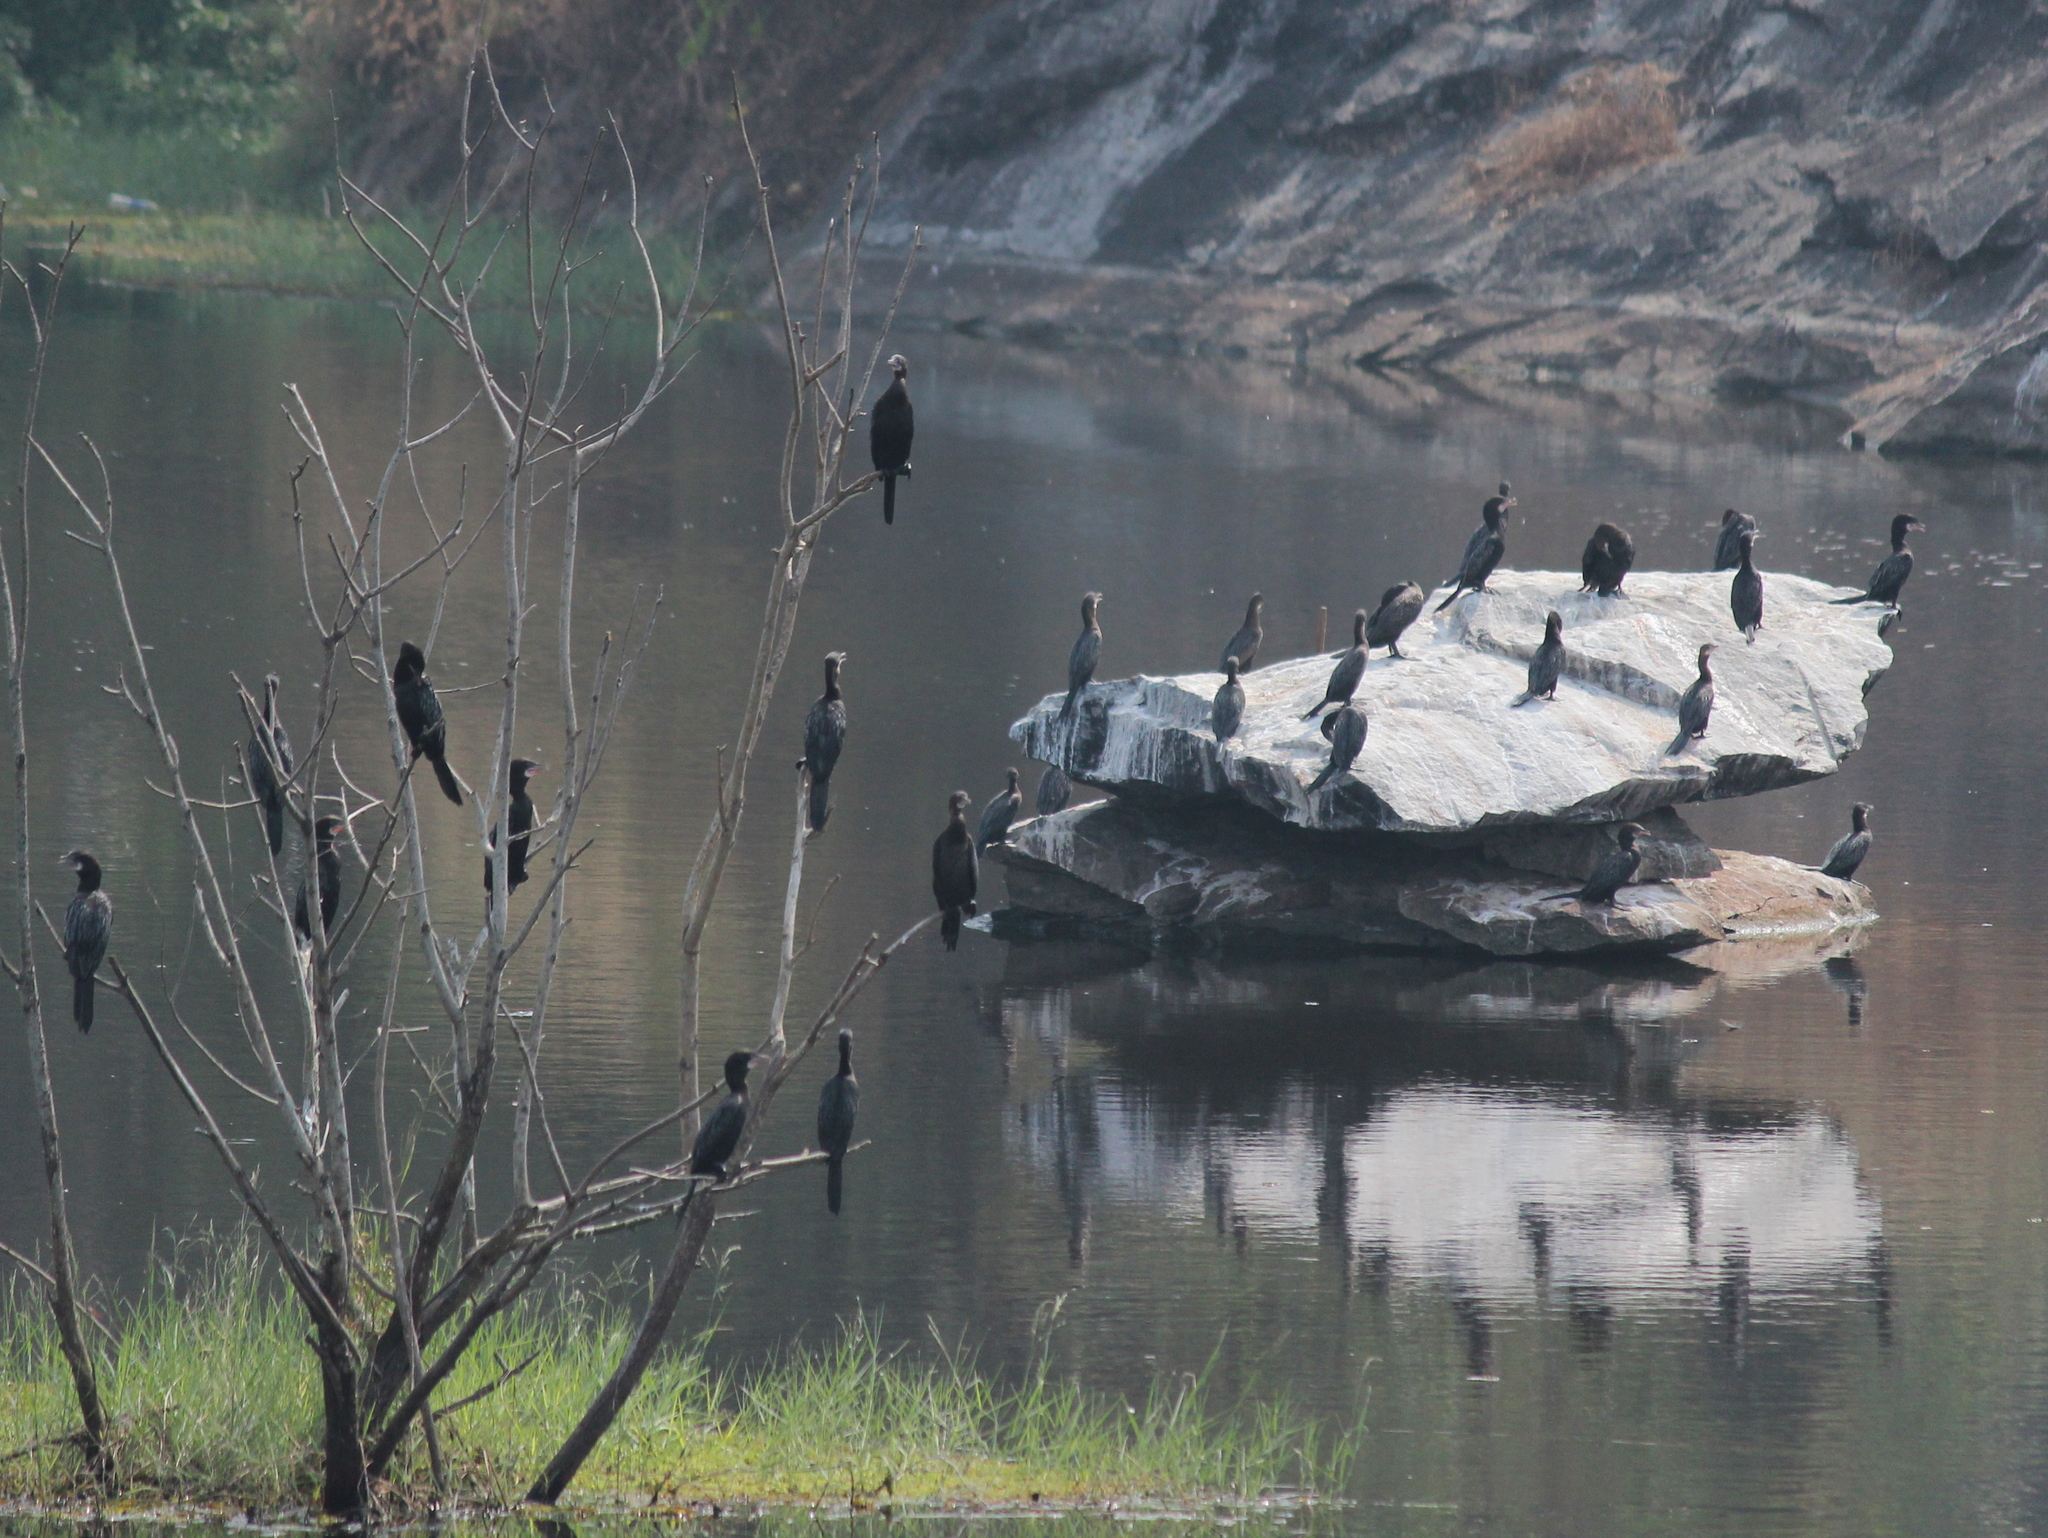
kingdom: Animalia
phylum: Chordata
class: Aves
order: Suliformes
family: Phalacrocoracidae
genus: Microcarbo
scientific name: Microcarbo niger
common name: Little cormorant
